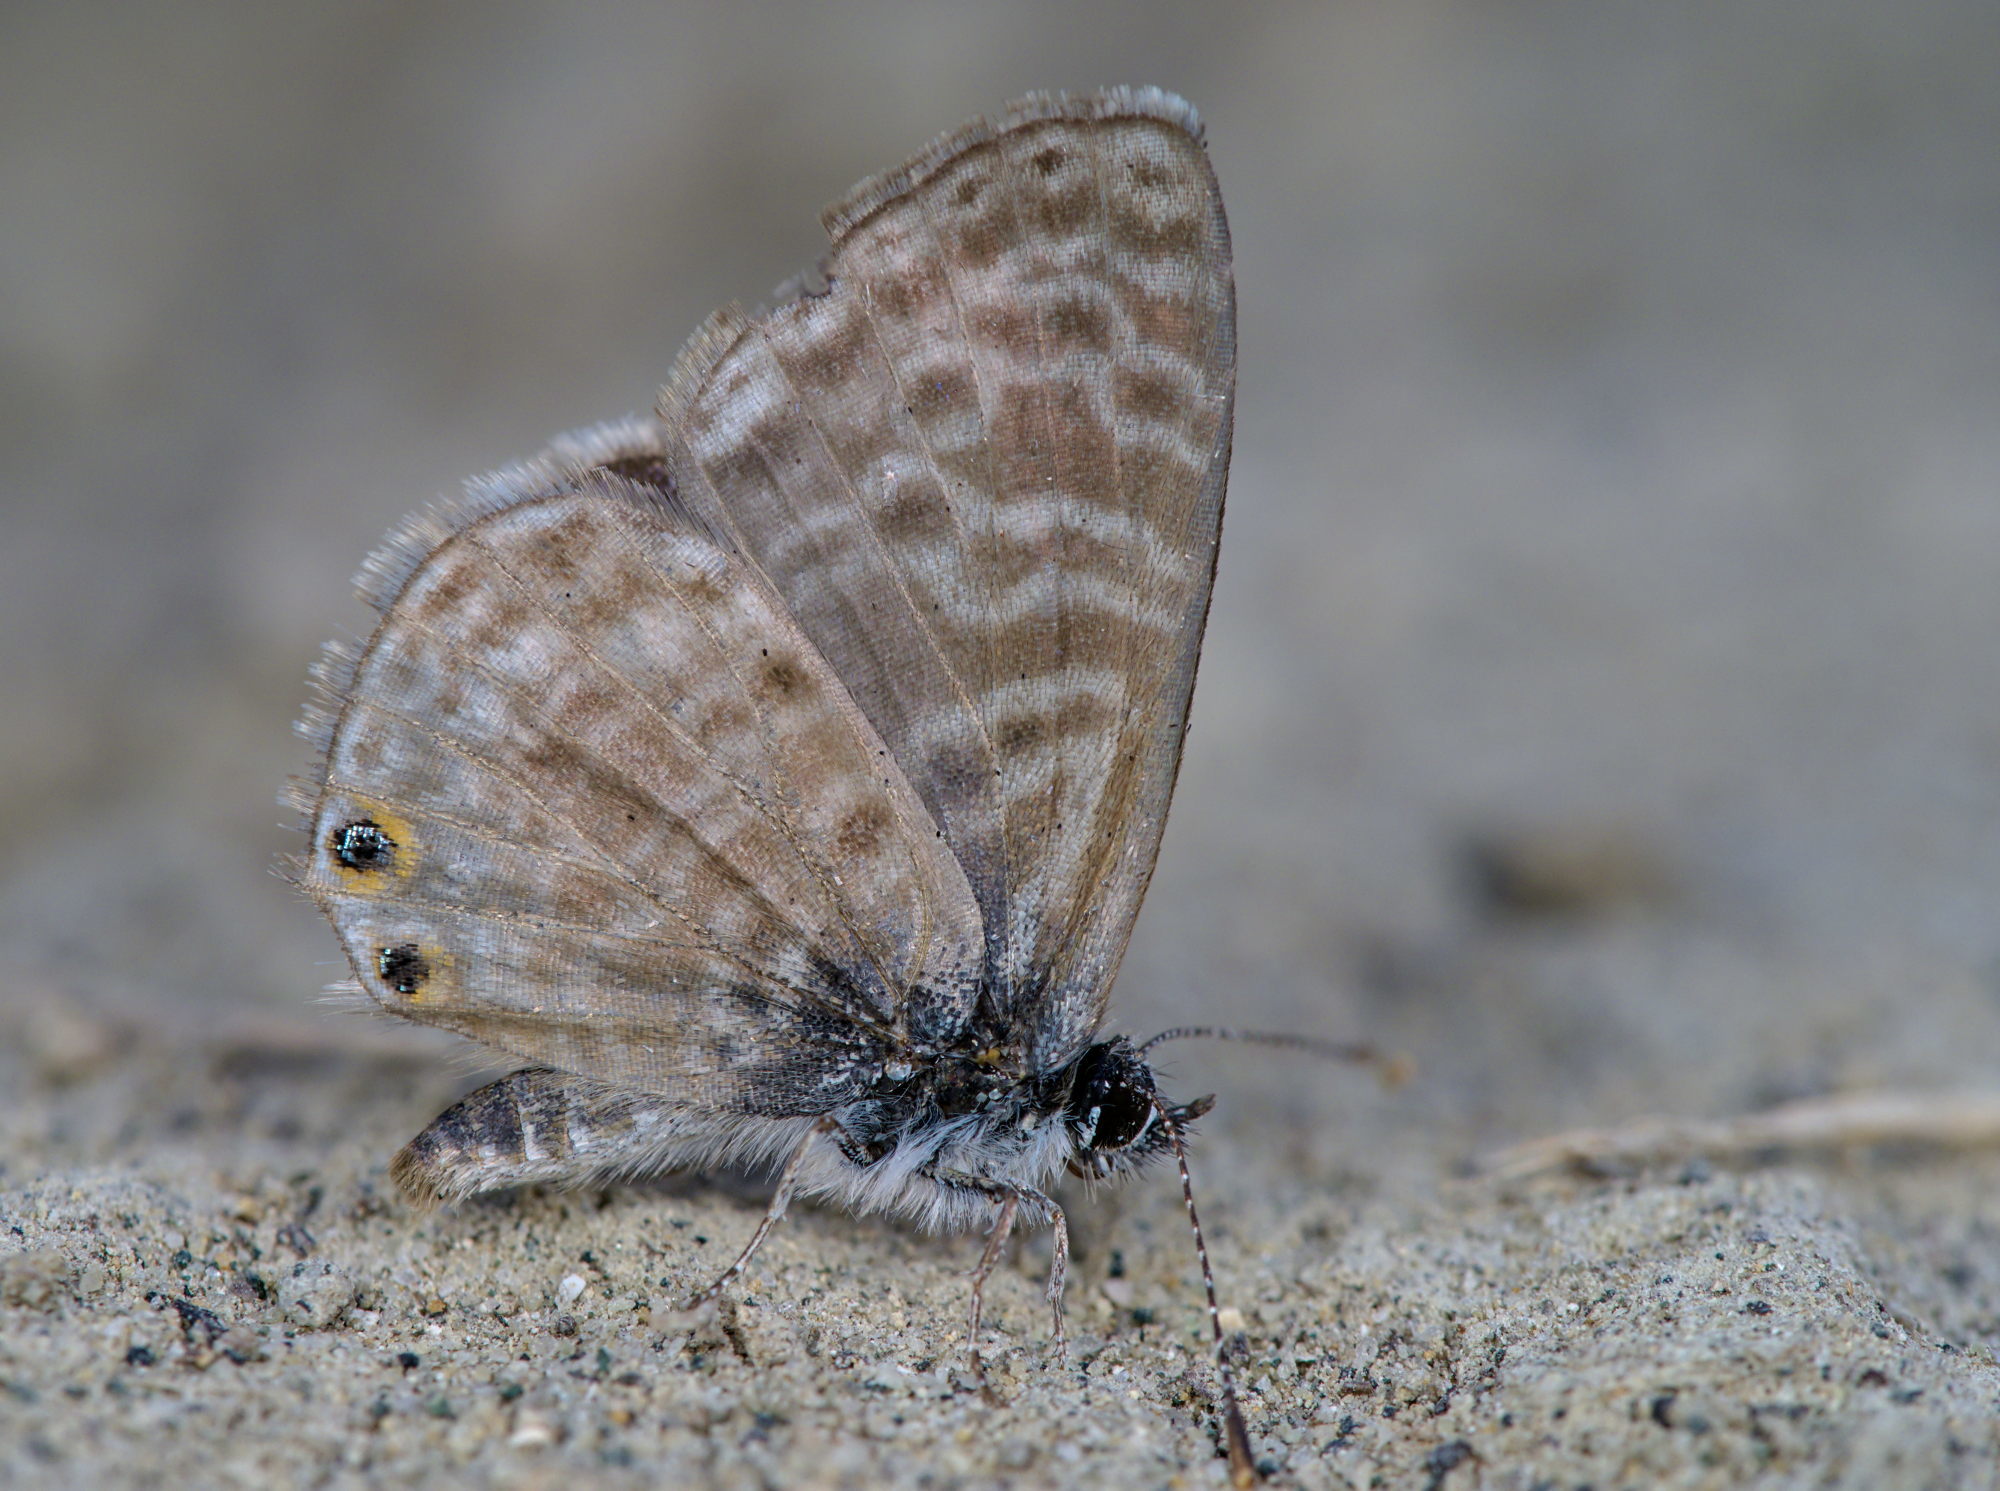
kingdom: Animalia
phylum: Arthropoda
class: Insecta
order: Lepidoptera
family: Lycaenidae
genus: Leptotes
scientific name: Leptotes pirithous
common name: Lang's short-tailed blue
